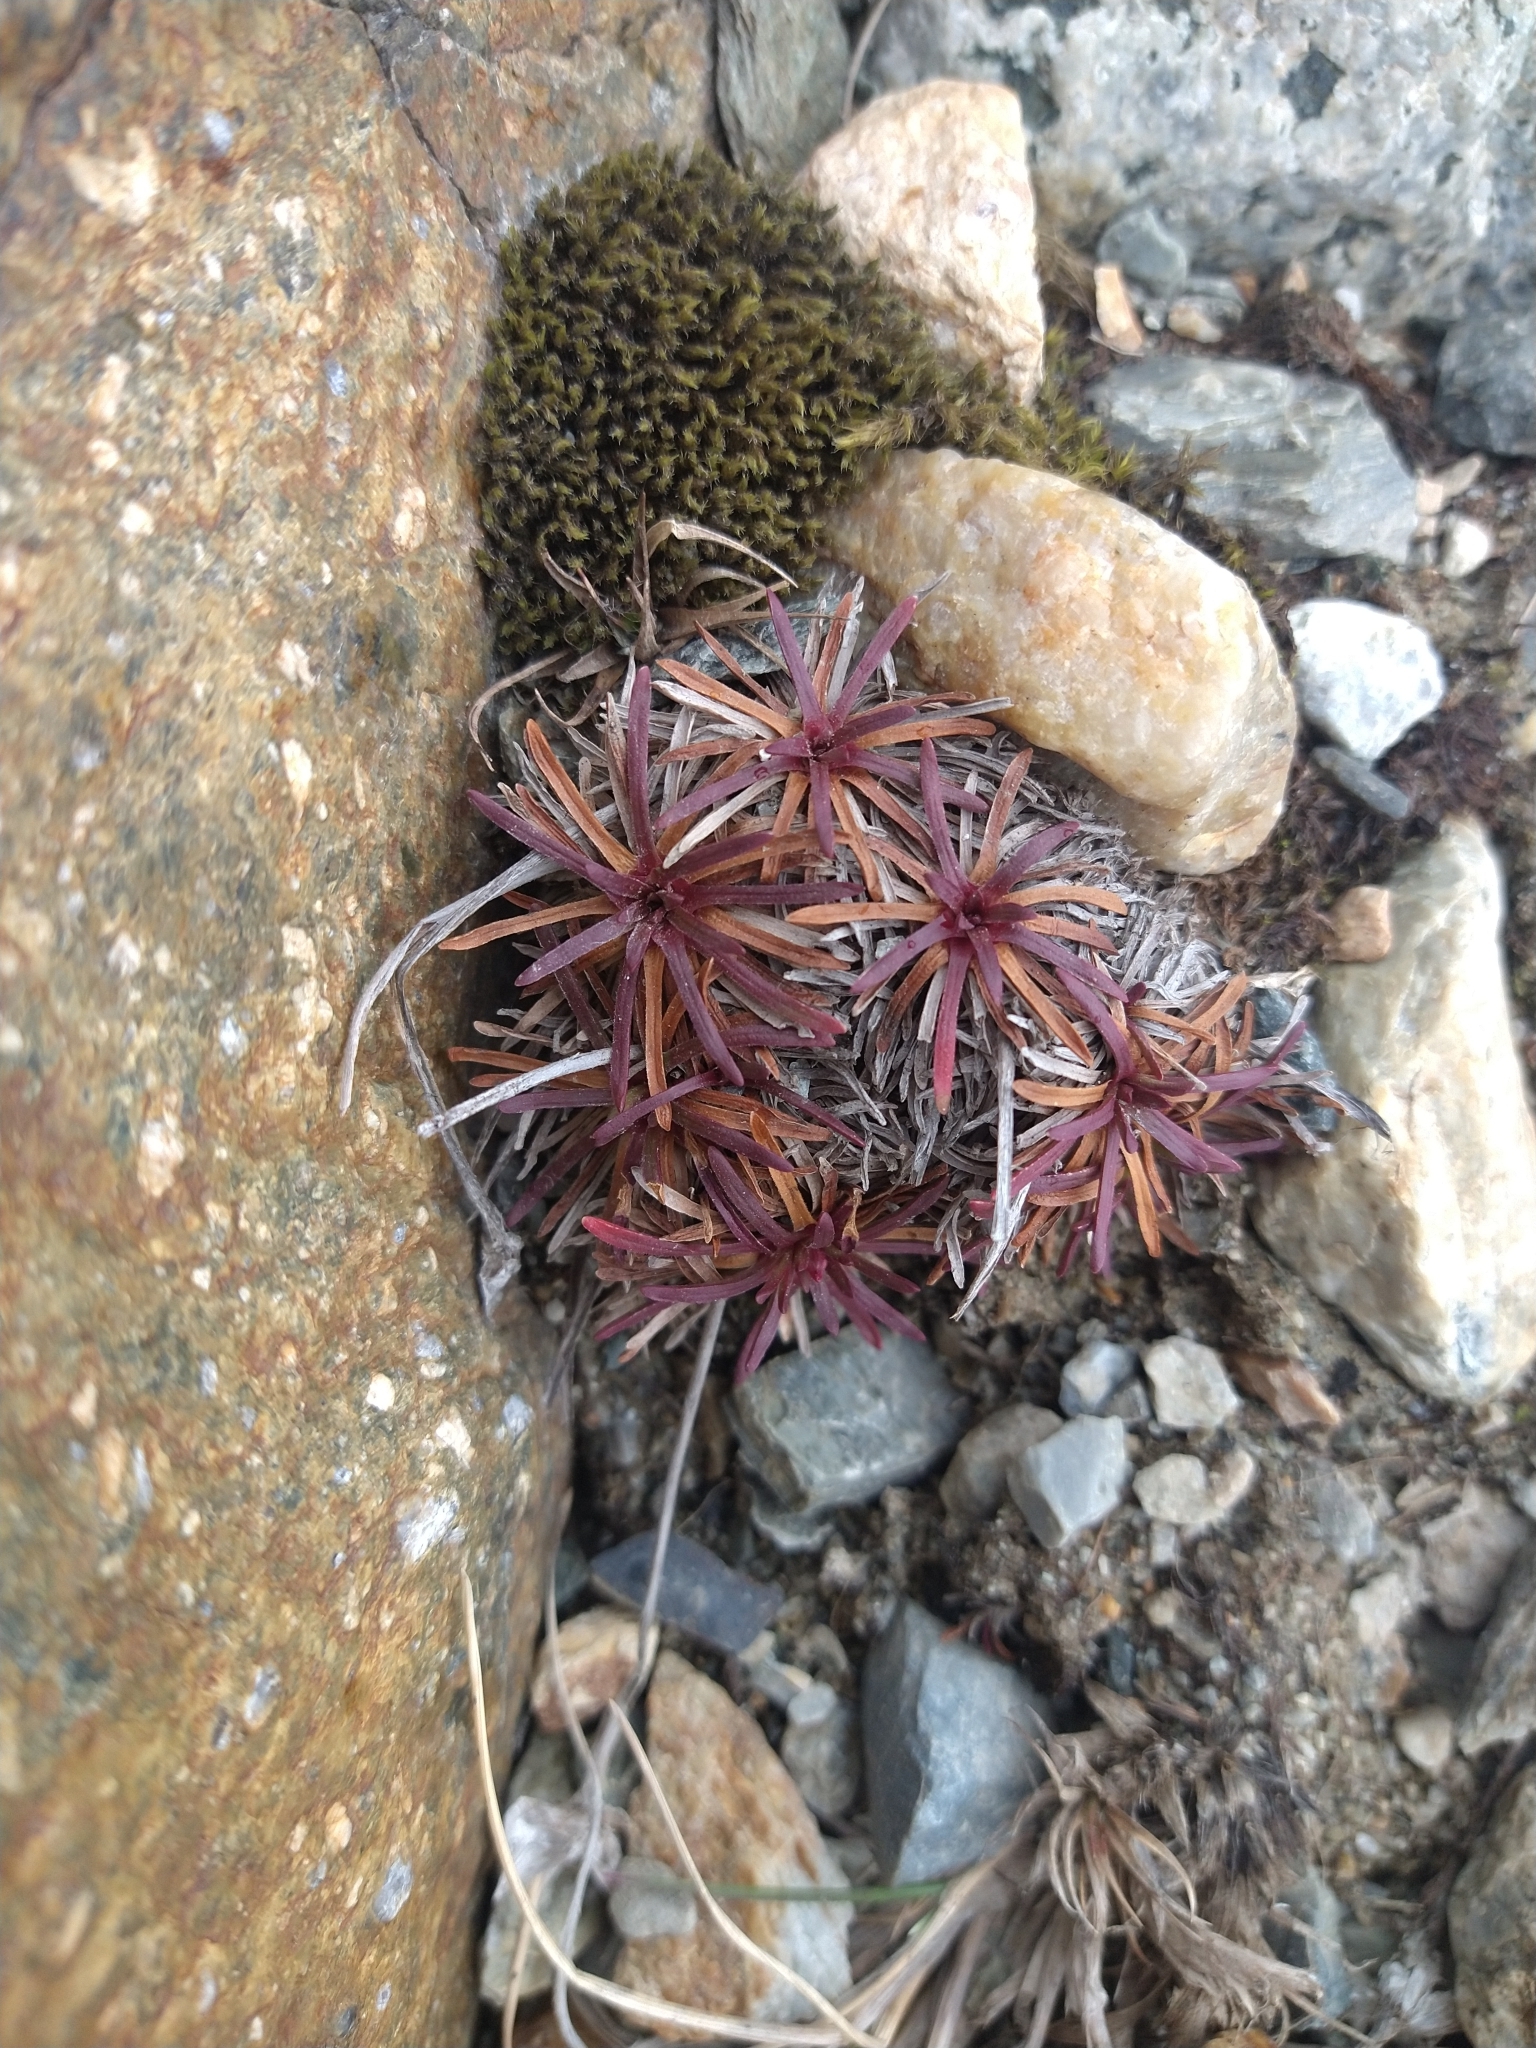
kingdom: Plantae
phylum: Tracheophyta
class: Magnoliopsida
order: Caryophyllales
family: Plumbaginaceae
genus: Armeria
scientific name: Armeria curvifolia
